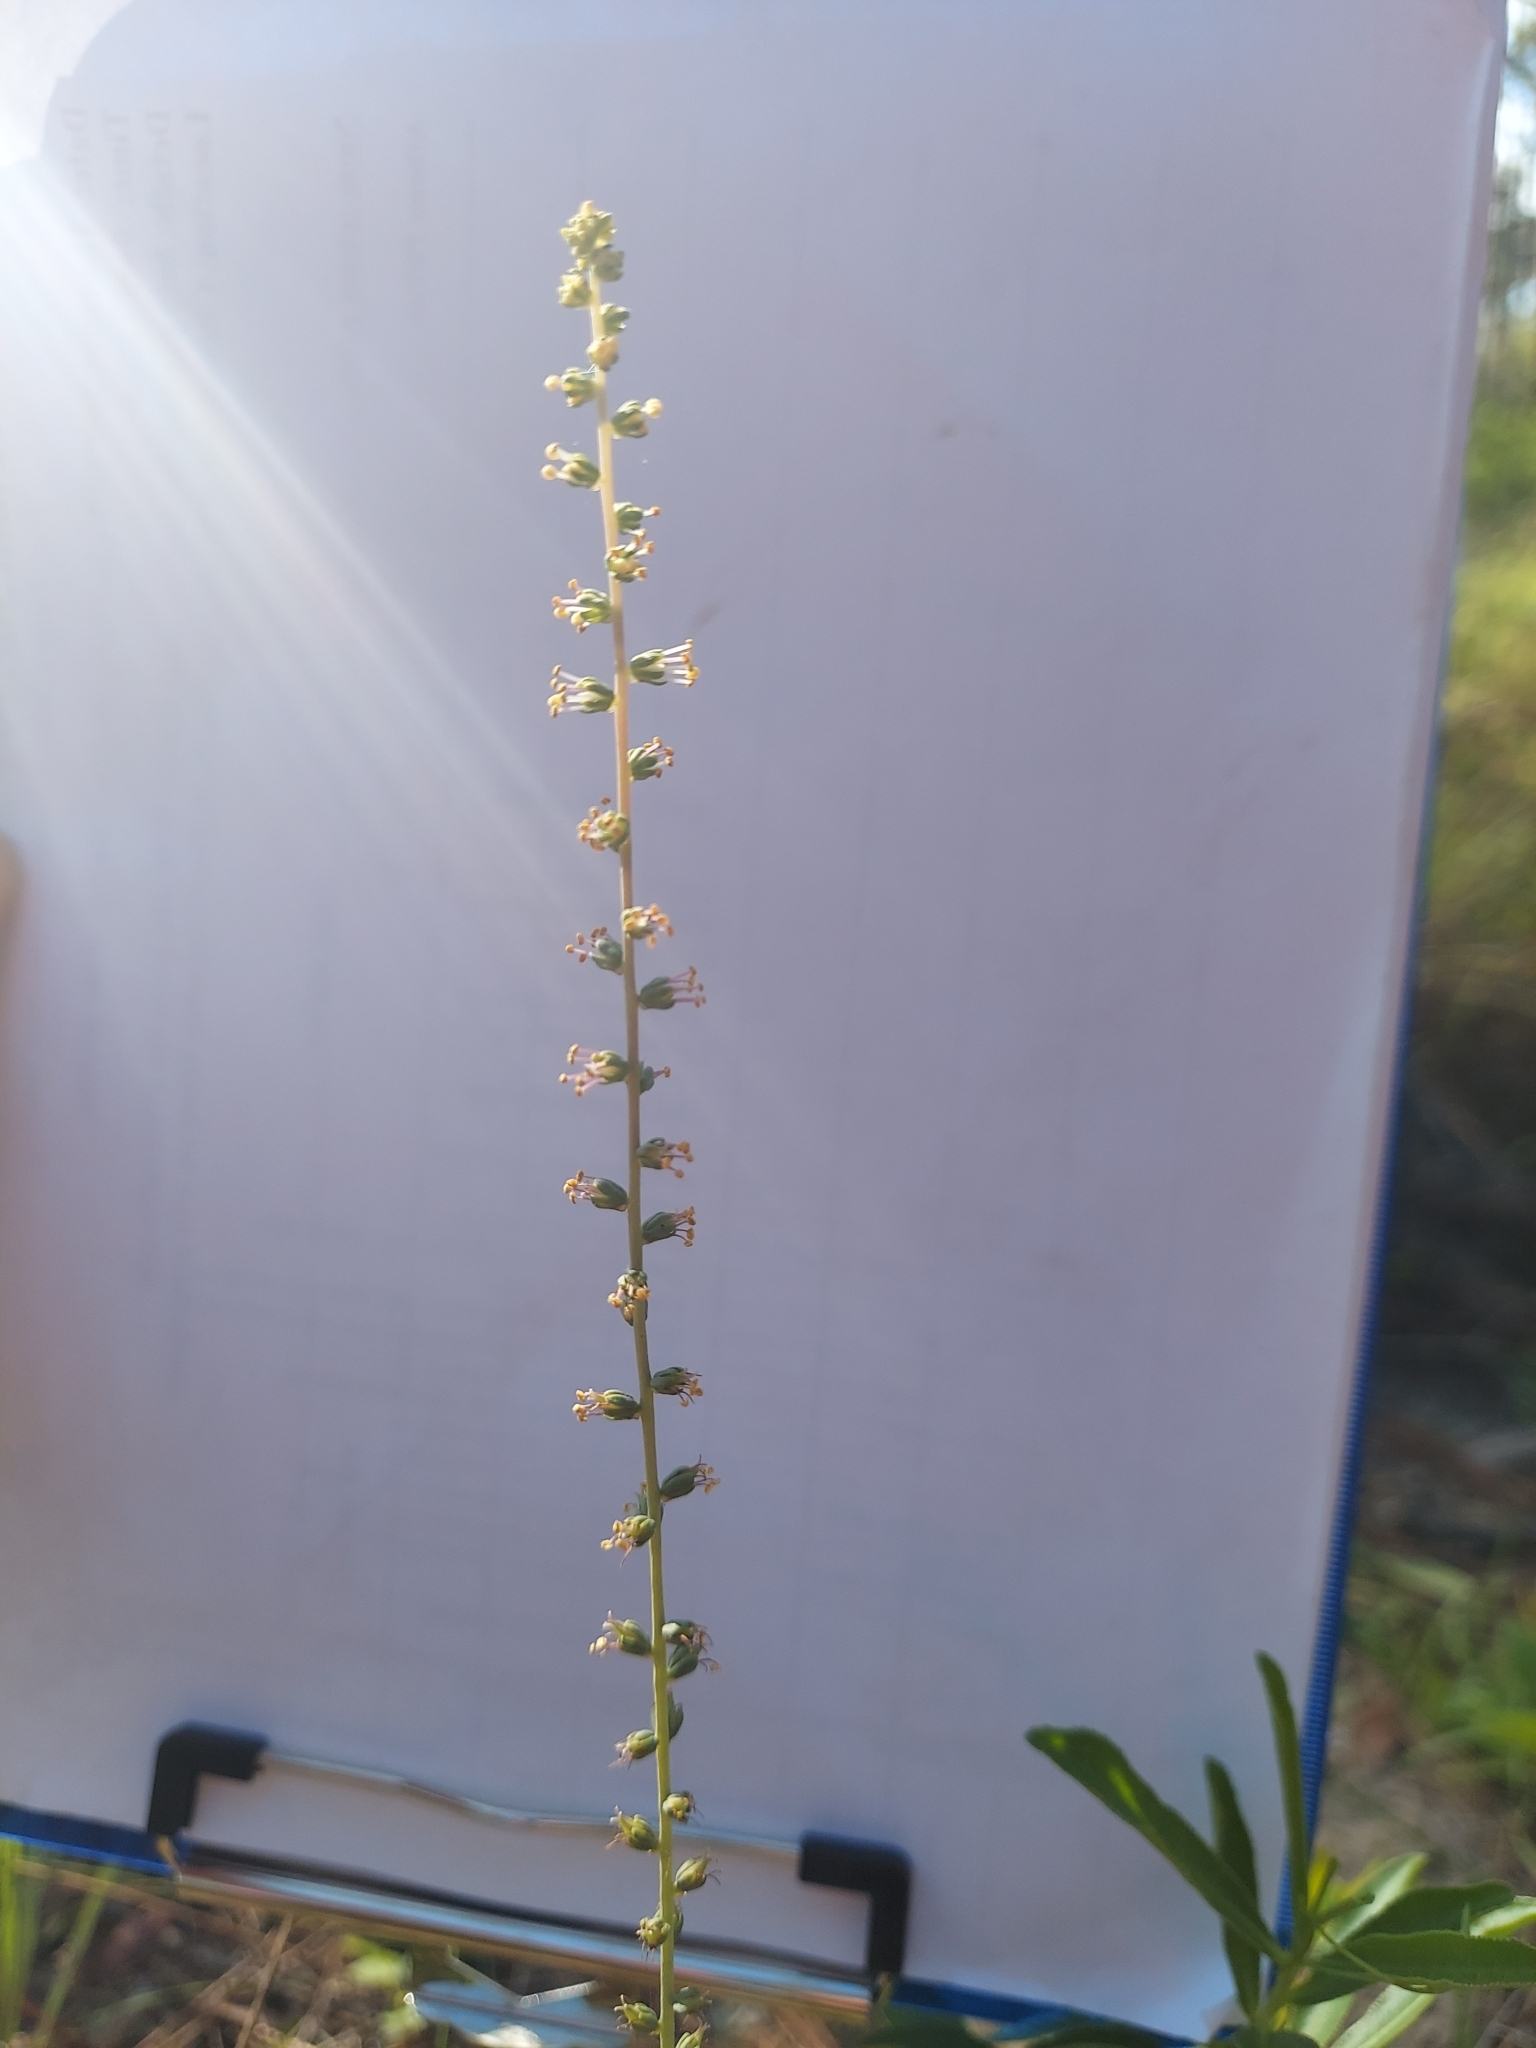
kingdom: Plantae
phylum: Tracheophyta
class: Liliopsida
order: Liliales
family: Melanthiaceae
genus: Schoenocaulon
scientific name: Schoenocaulon dubium
